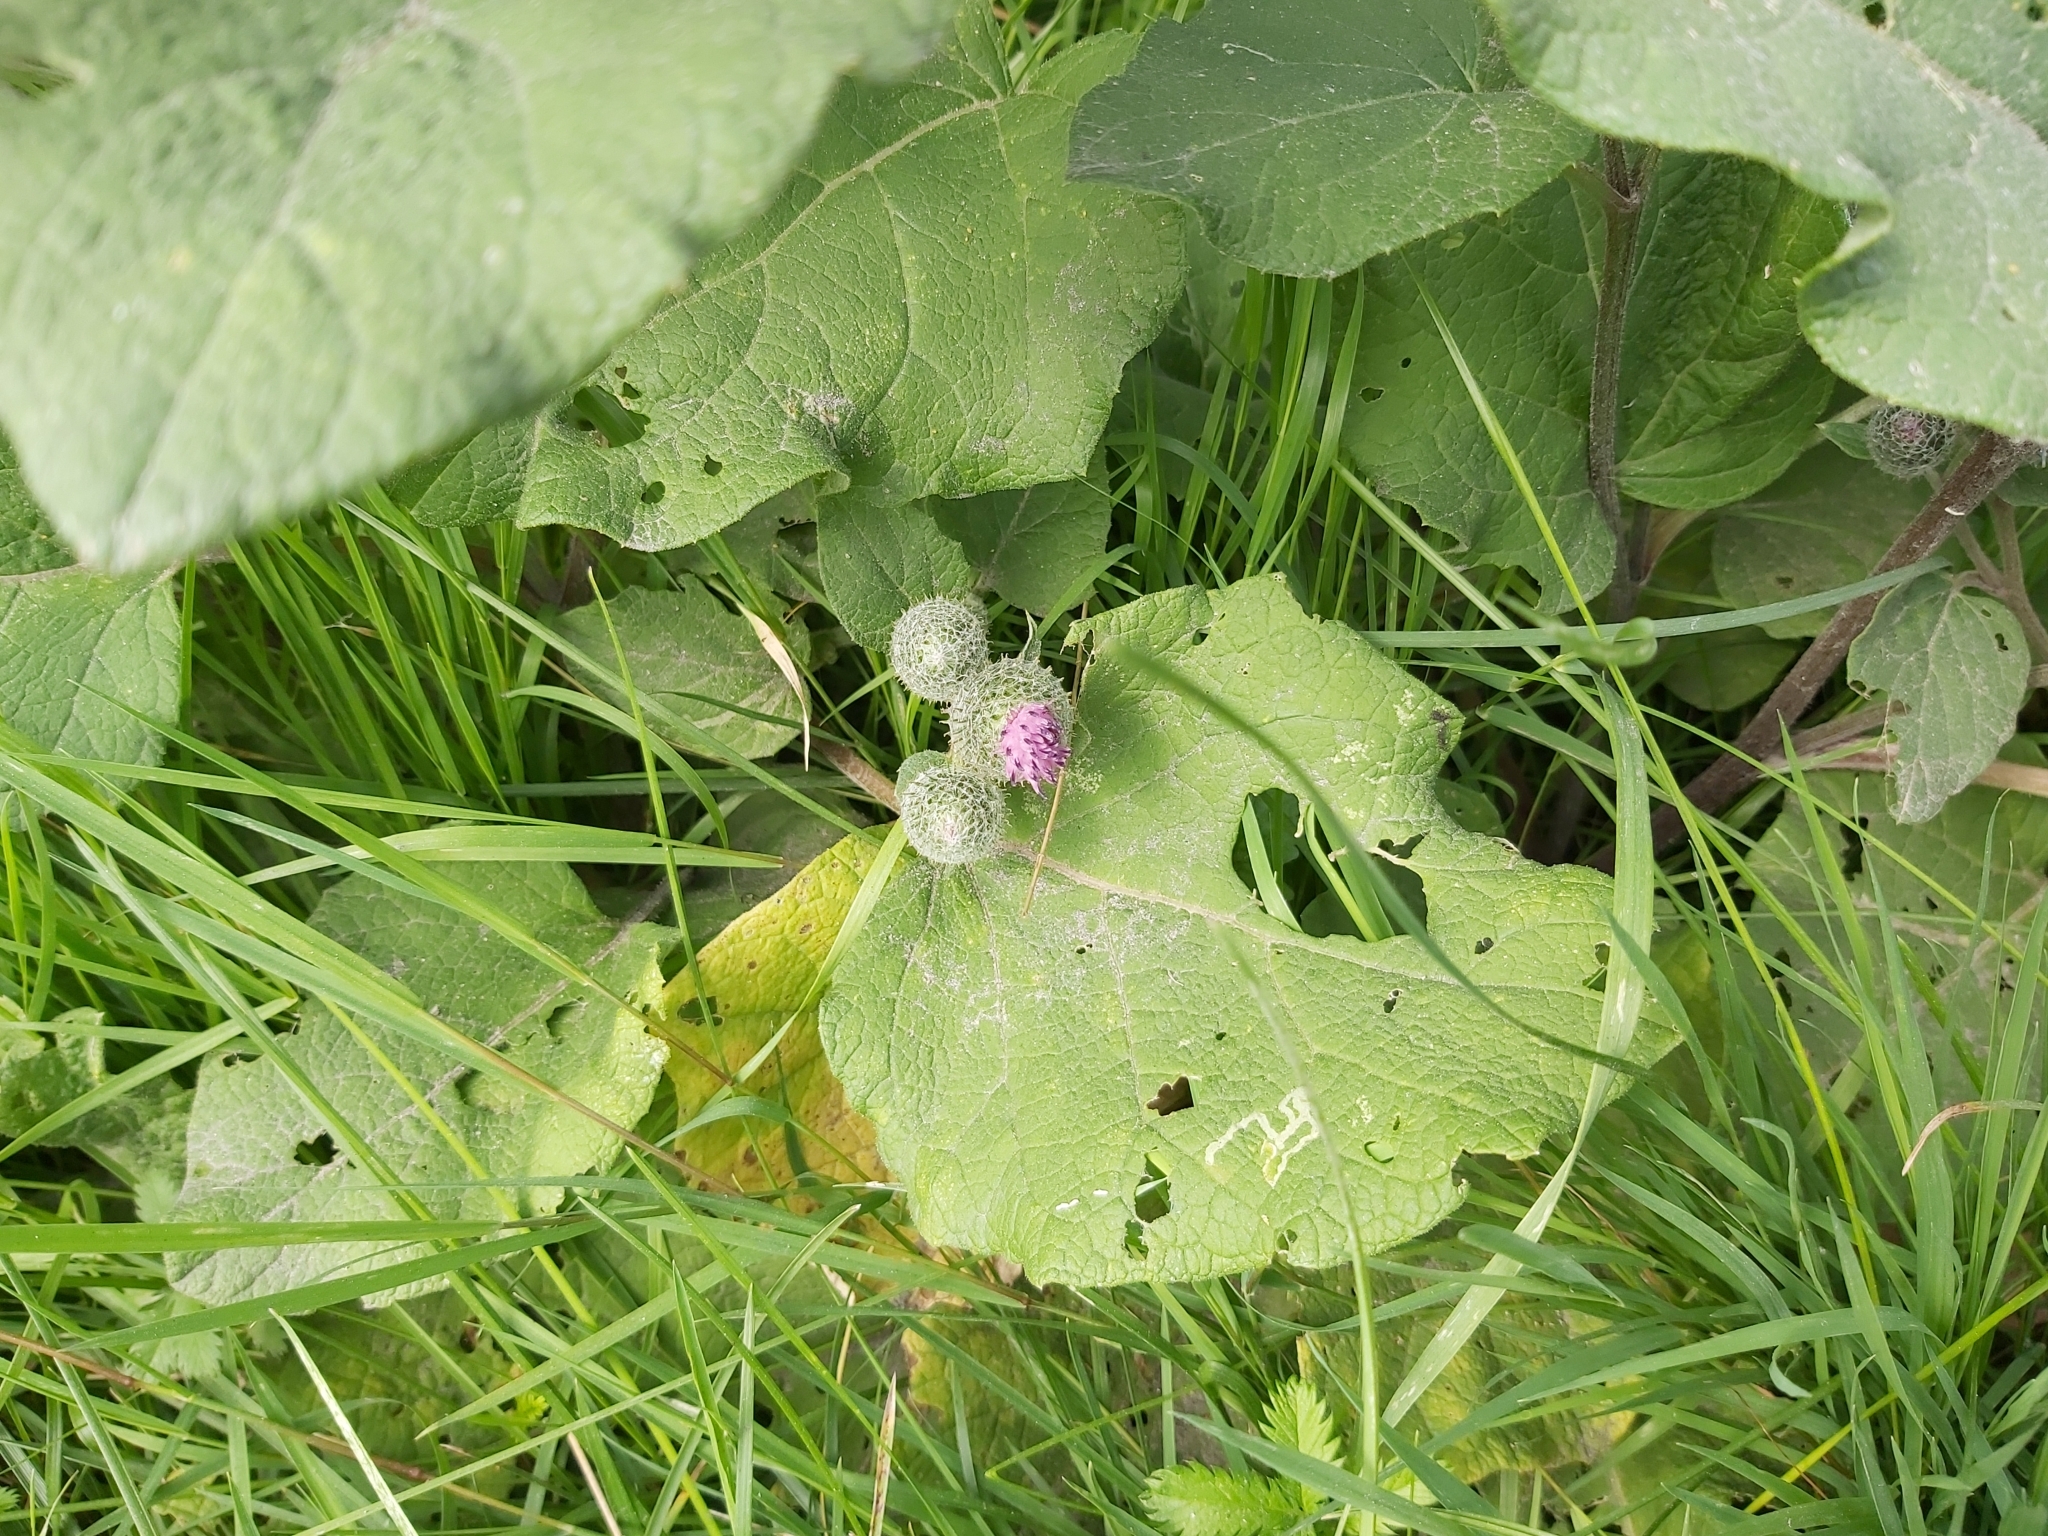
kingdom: Plantae
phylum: Tracheophyta
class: Magnoliopsida
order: Asterales
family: Asteraceae
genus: Arctium
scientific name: Arctium tomentosum
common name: Woolly burdock
